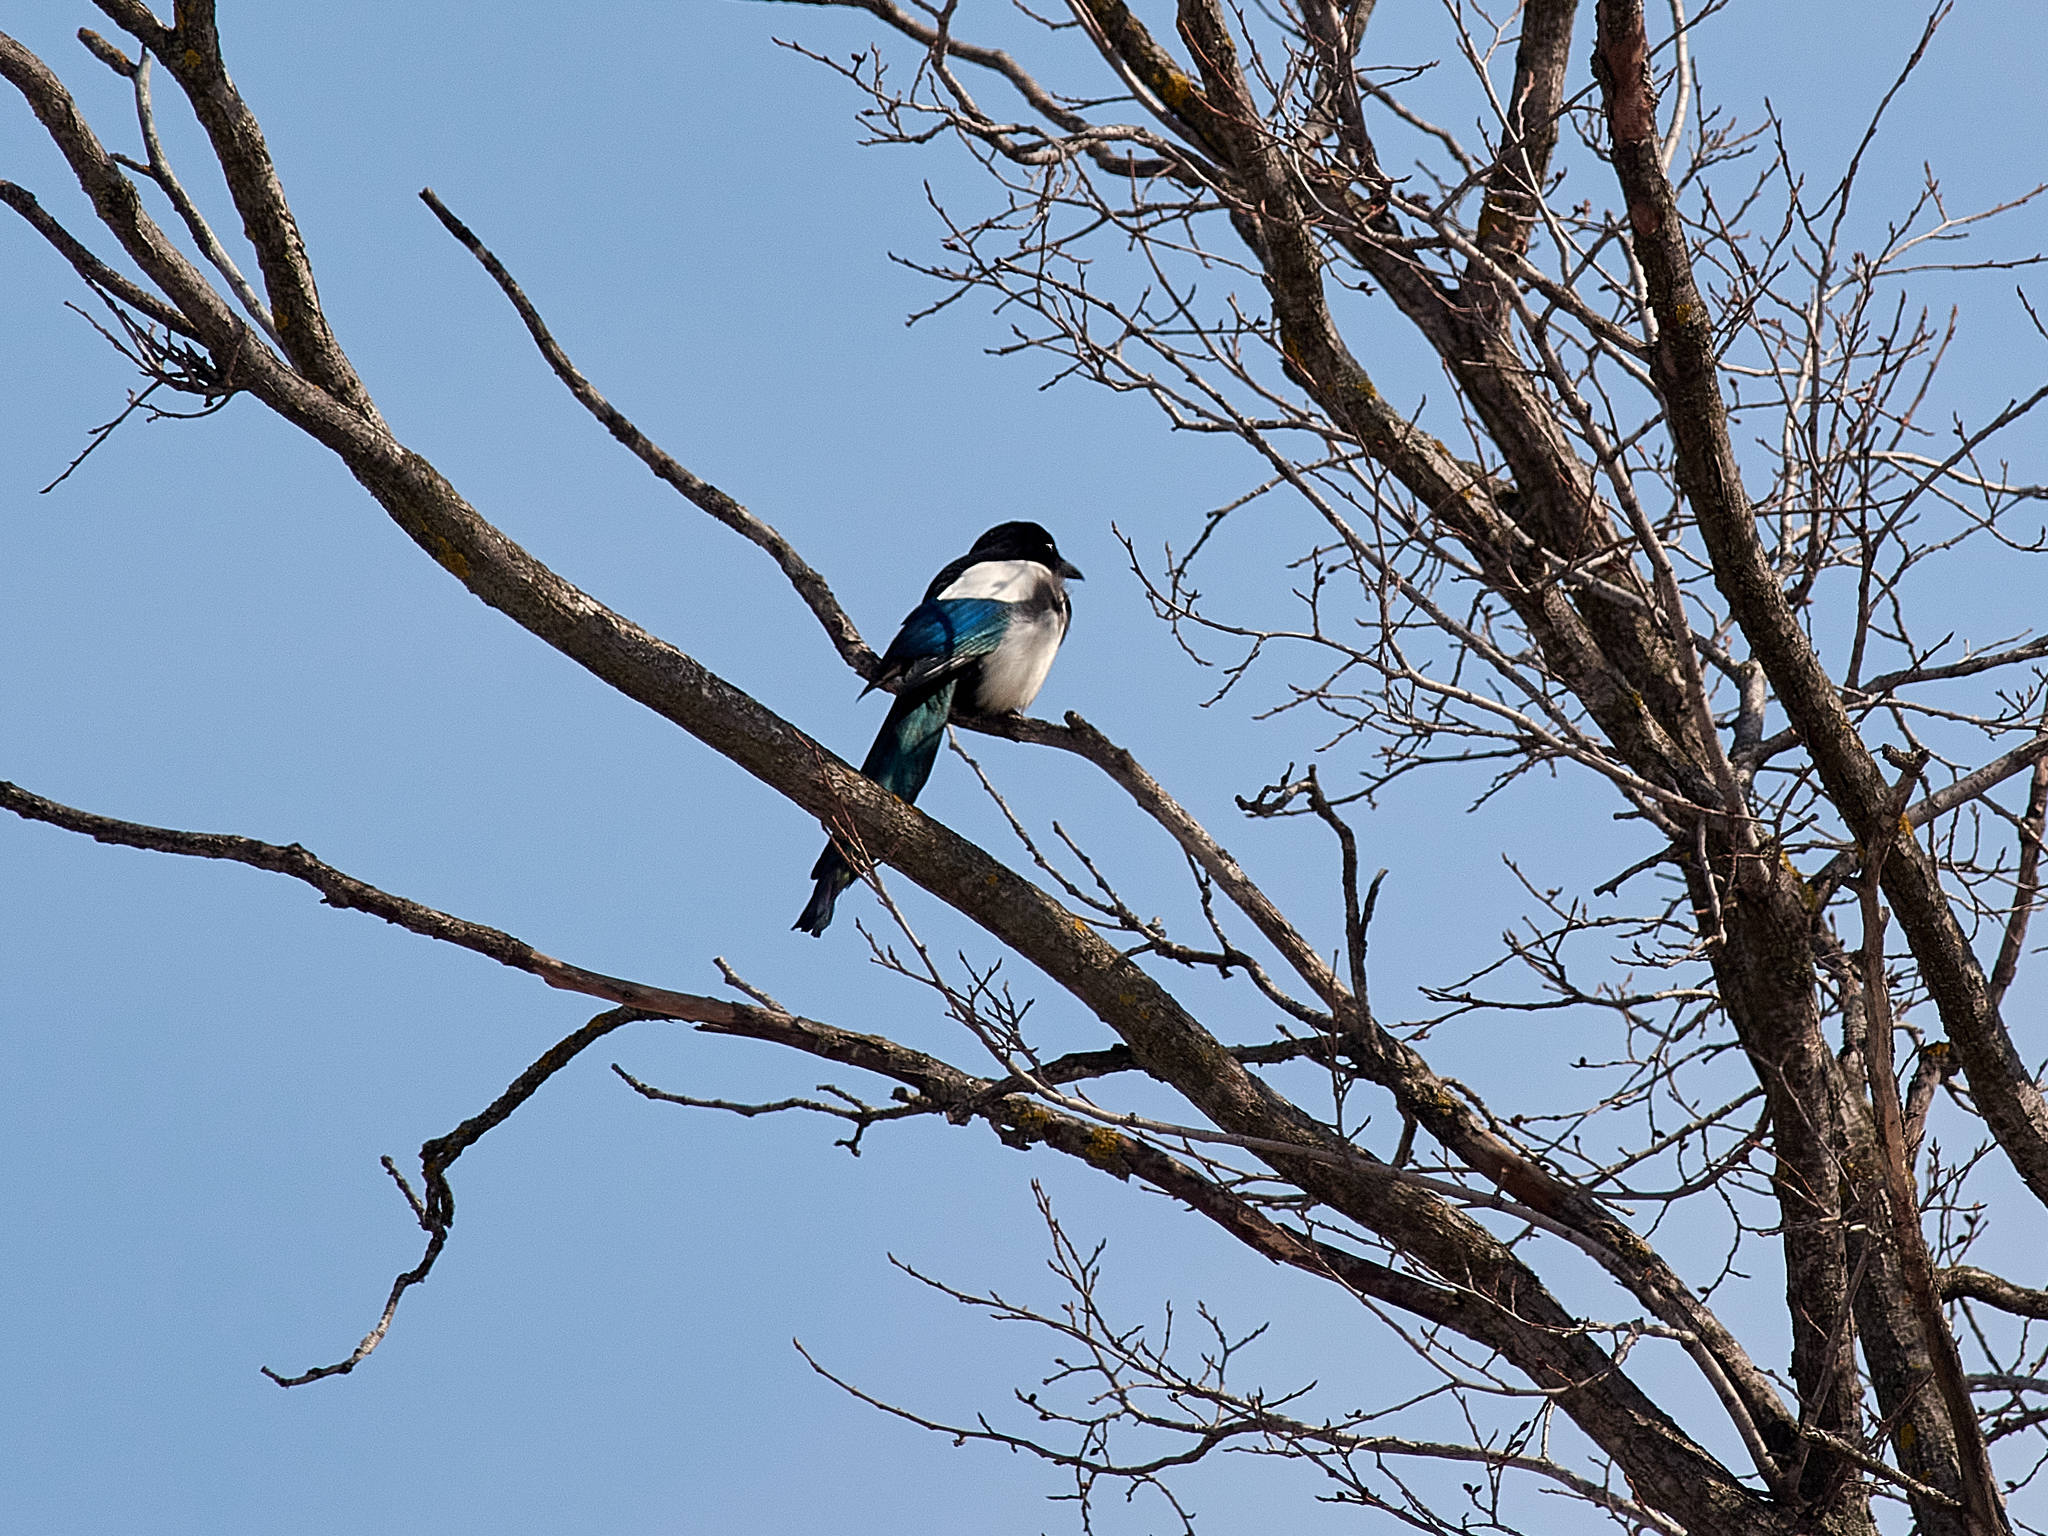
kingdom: Animalia
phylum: Chordata
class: Aves
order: Passeriformes
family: Corvidae
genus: Pica
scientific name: Pica pica
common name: Eurasian magpie
